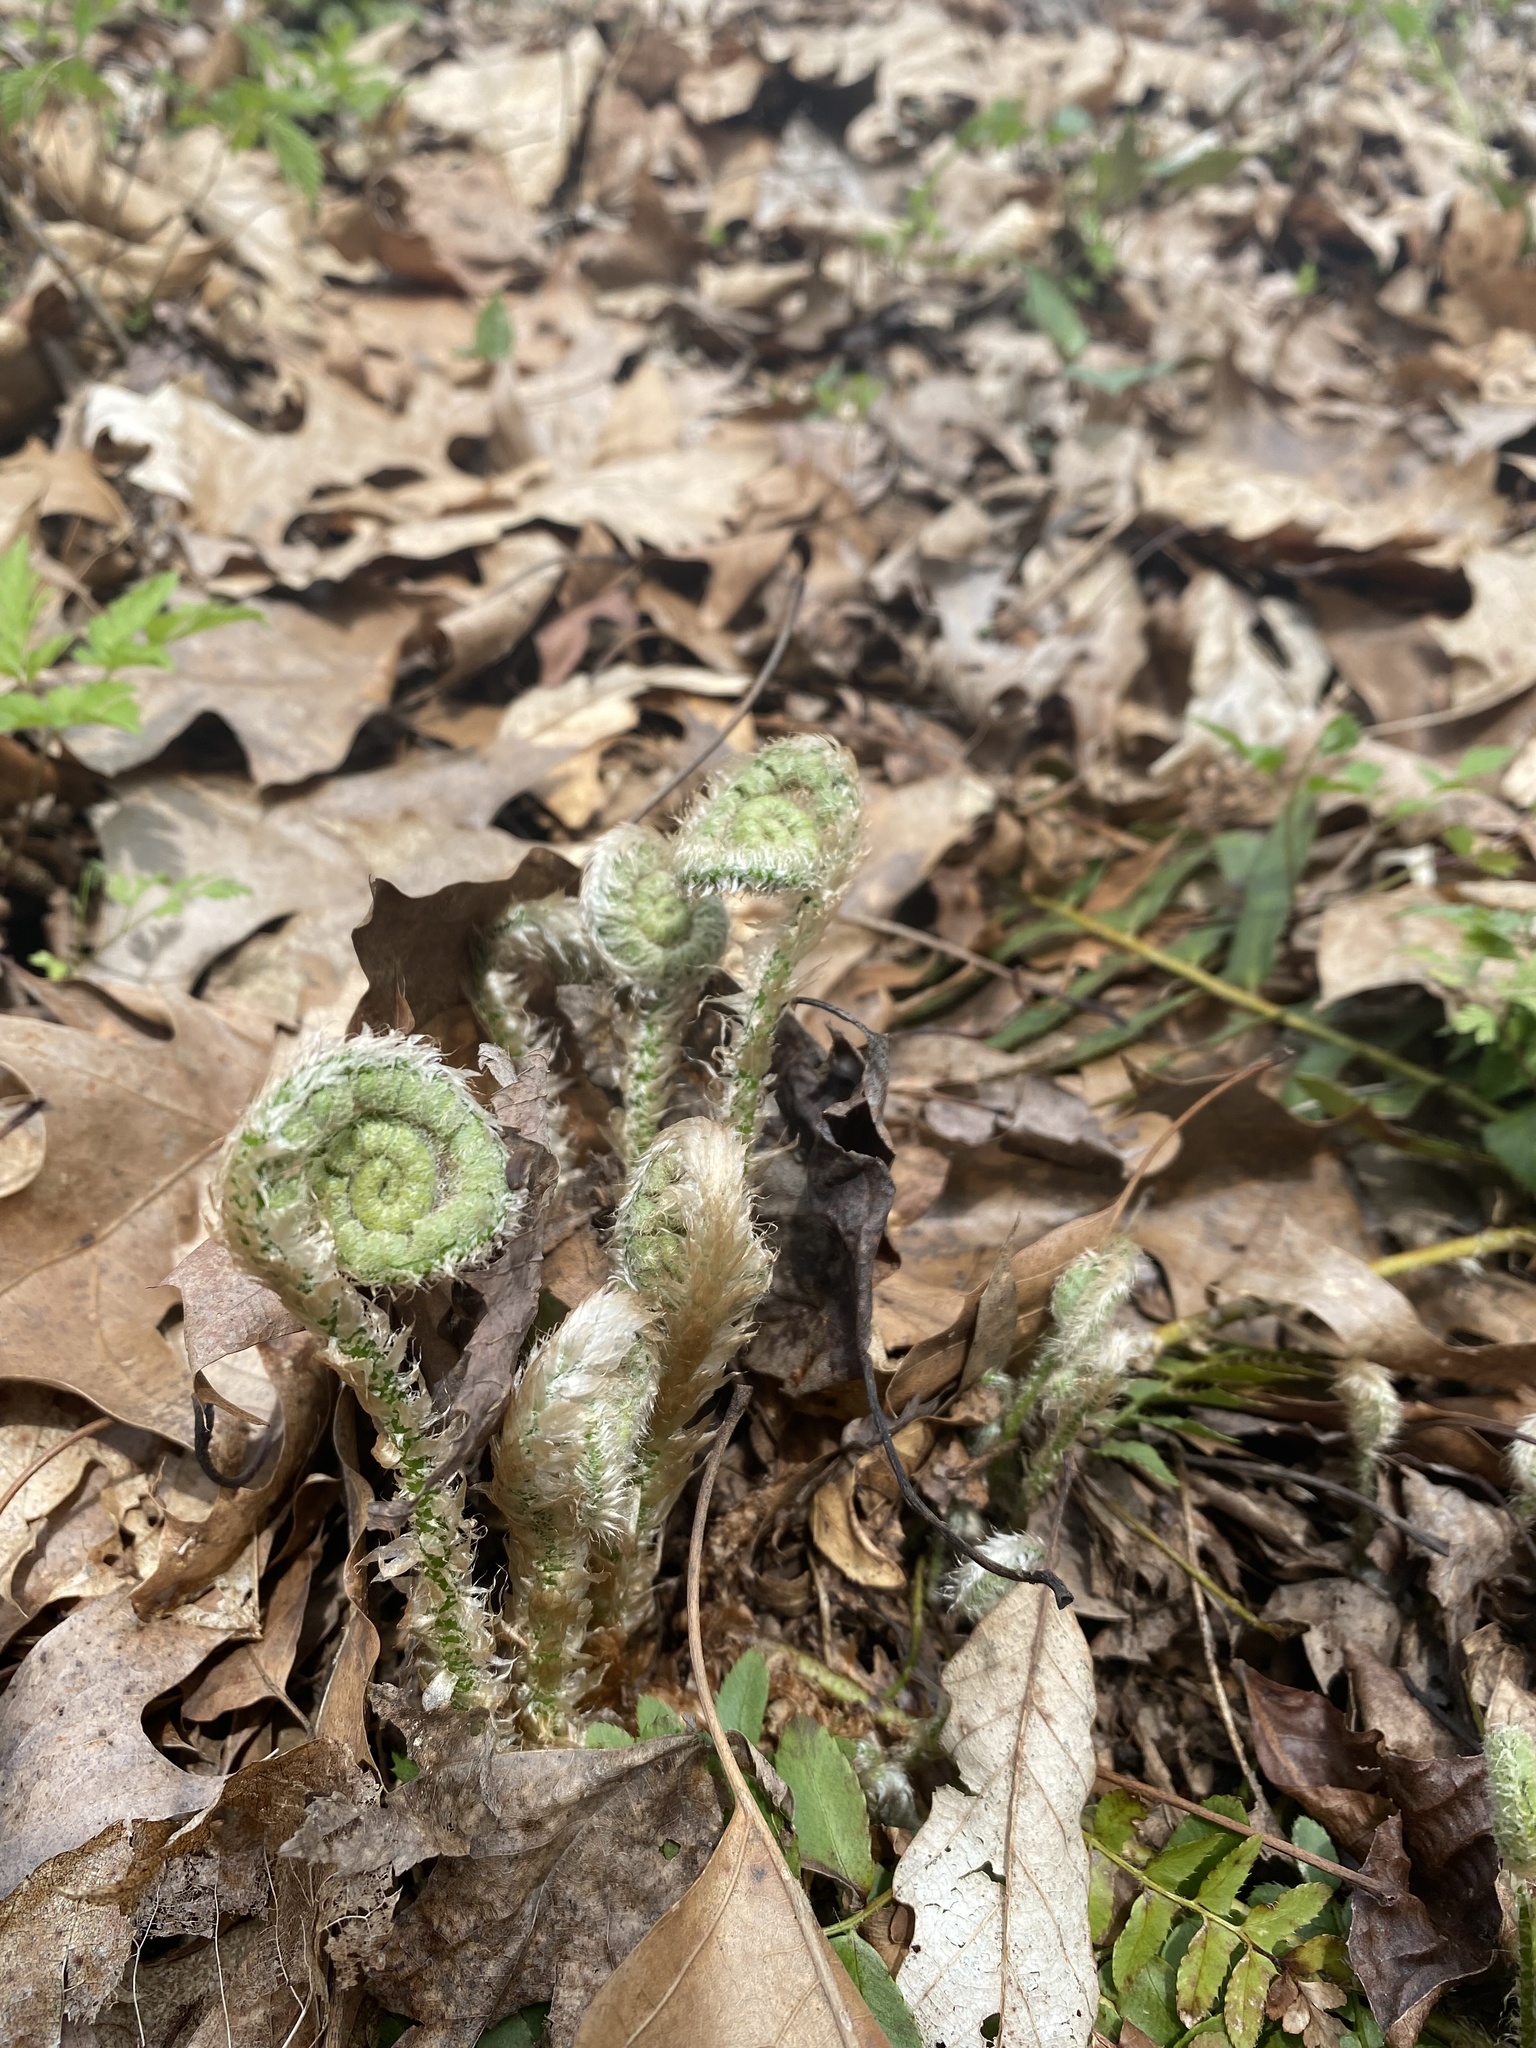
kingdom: Plantae
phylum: Tracheophyta
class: Polypodiopsida
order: Polypodiales
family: Dryopteridaceae
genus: Polystichum
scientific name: Polystichum acrostichoides
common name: Christmas fern
